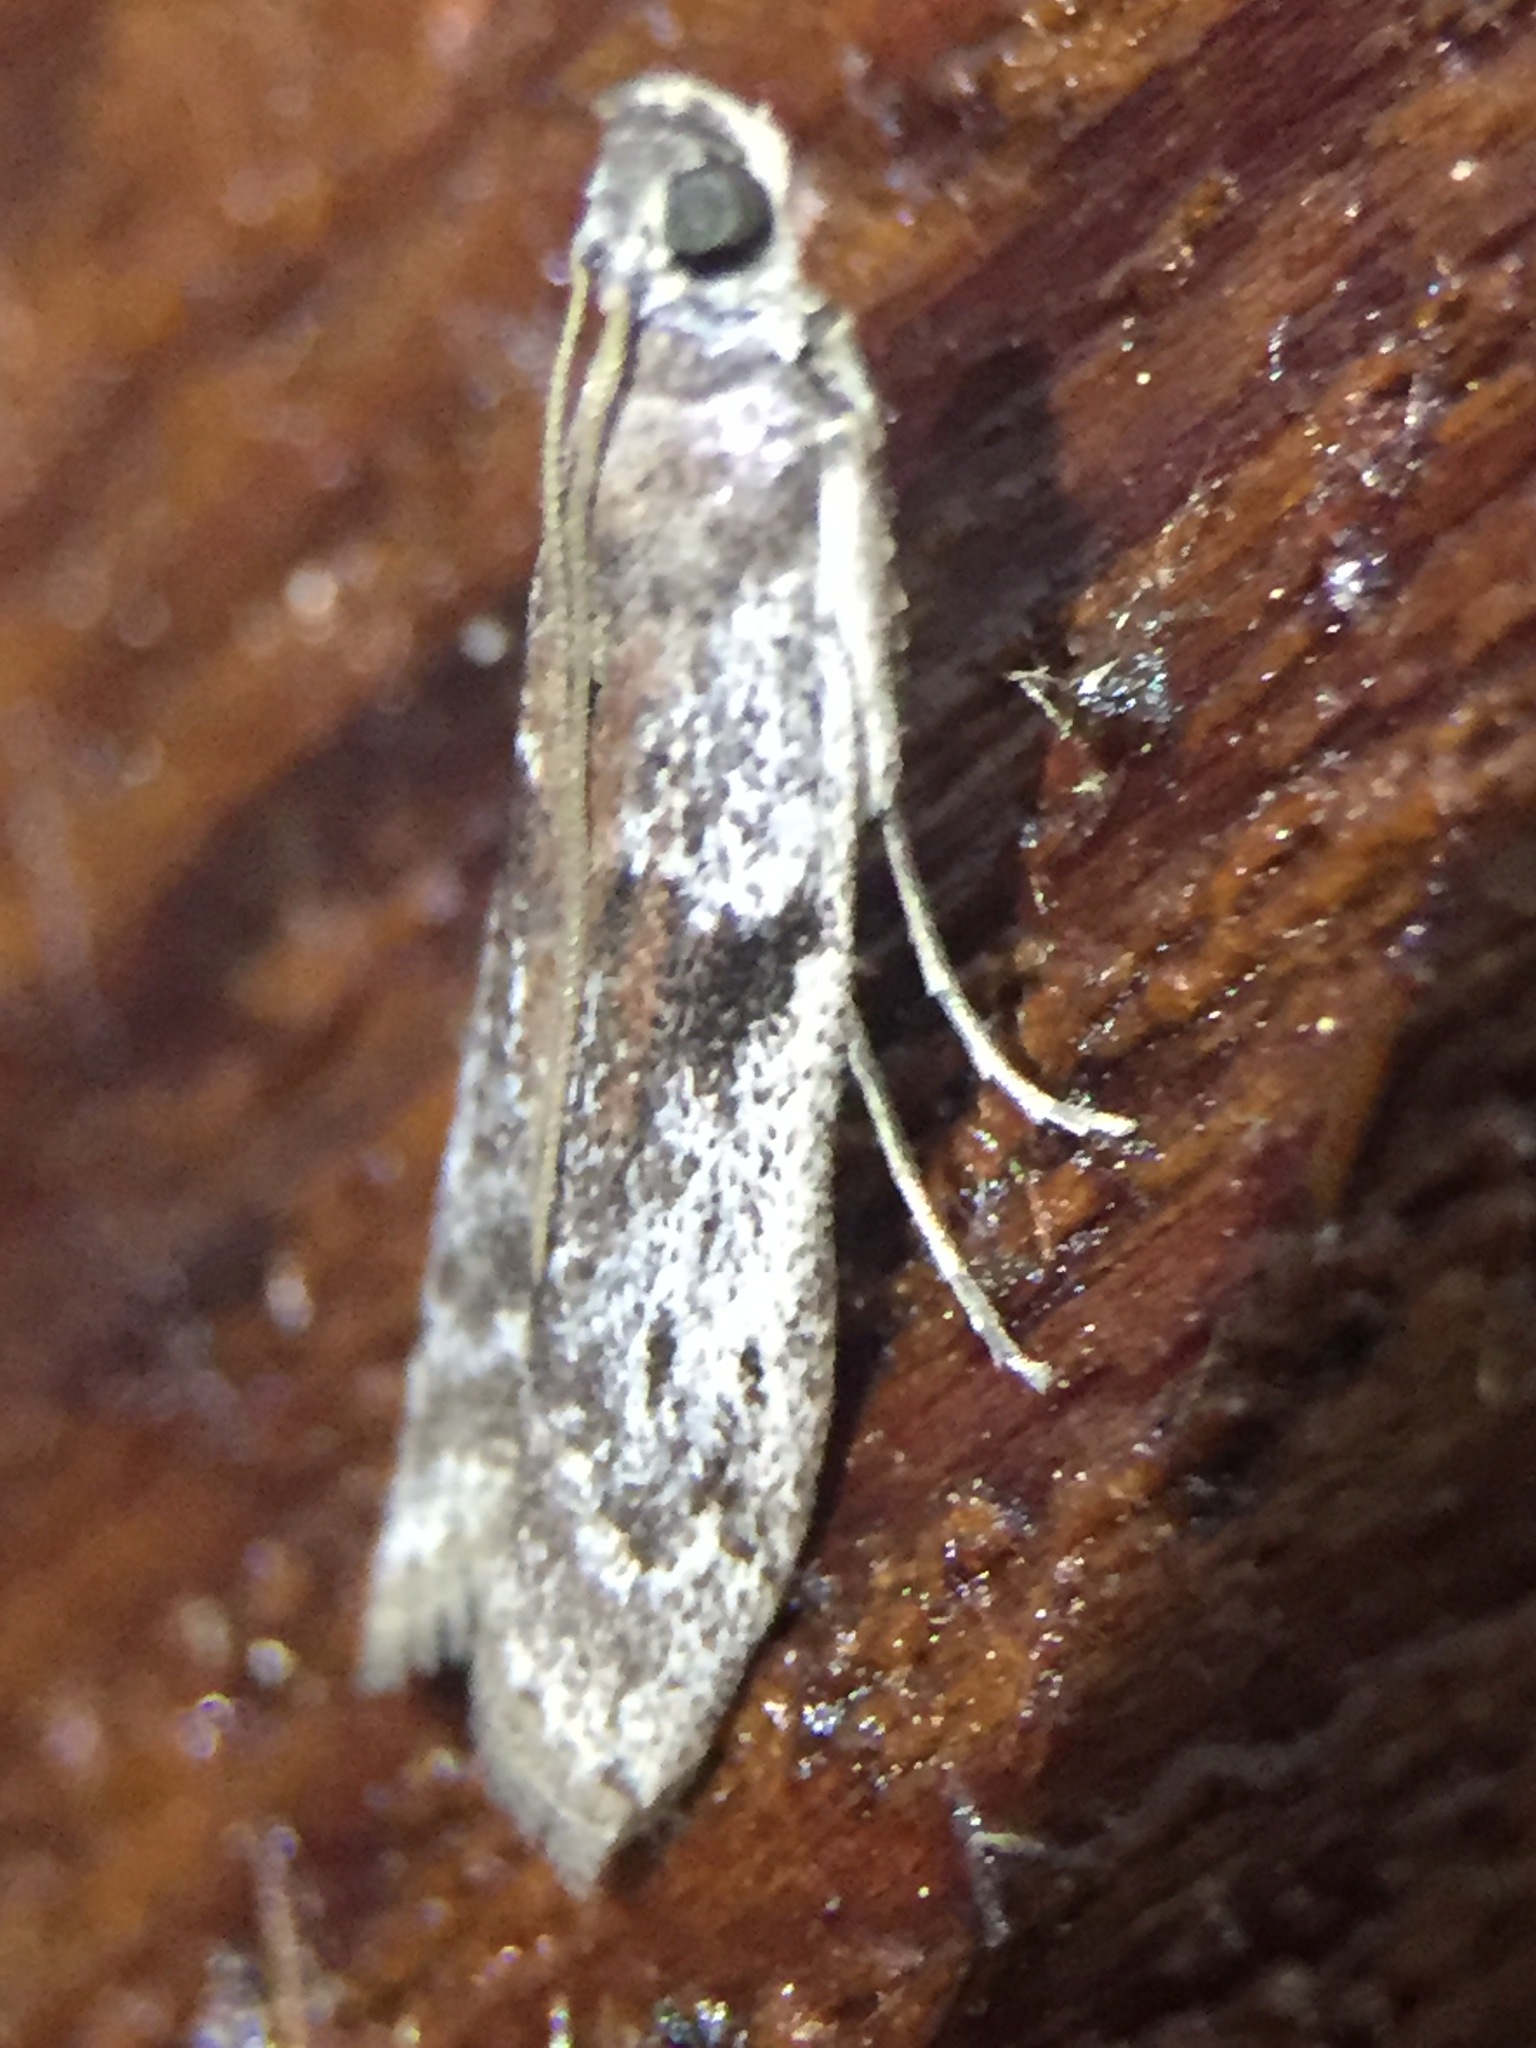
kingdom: Animalia
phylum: Arthropoda
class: Insecta
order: Lepidoptera
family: Pyralidae
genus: Patagoniodes
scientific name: Patagoniodes farinaria
